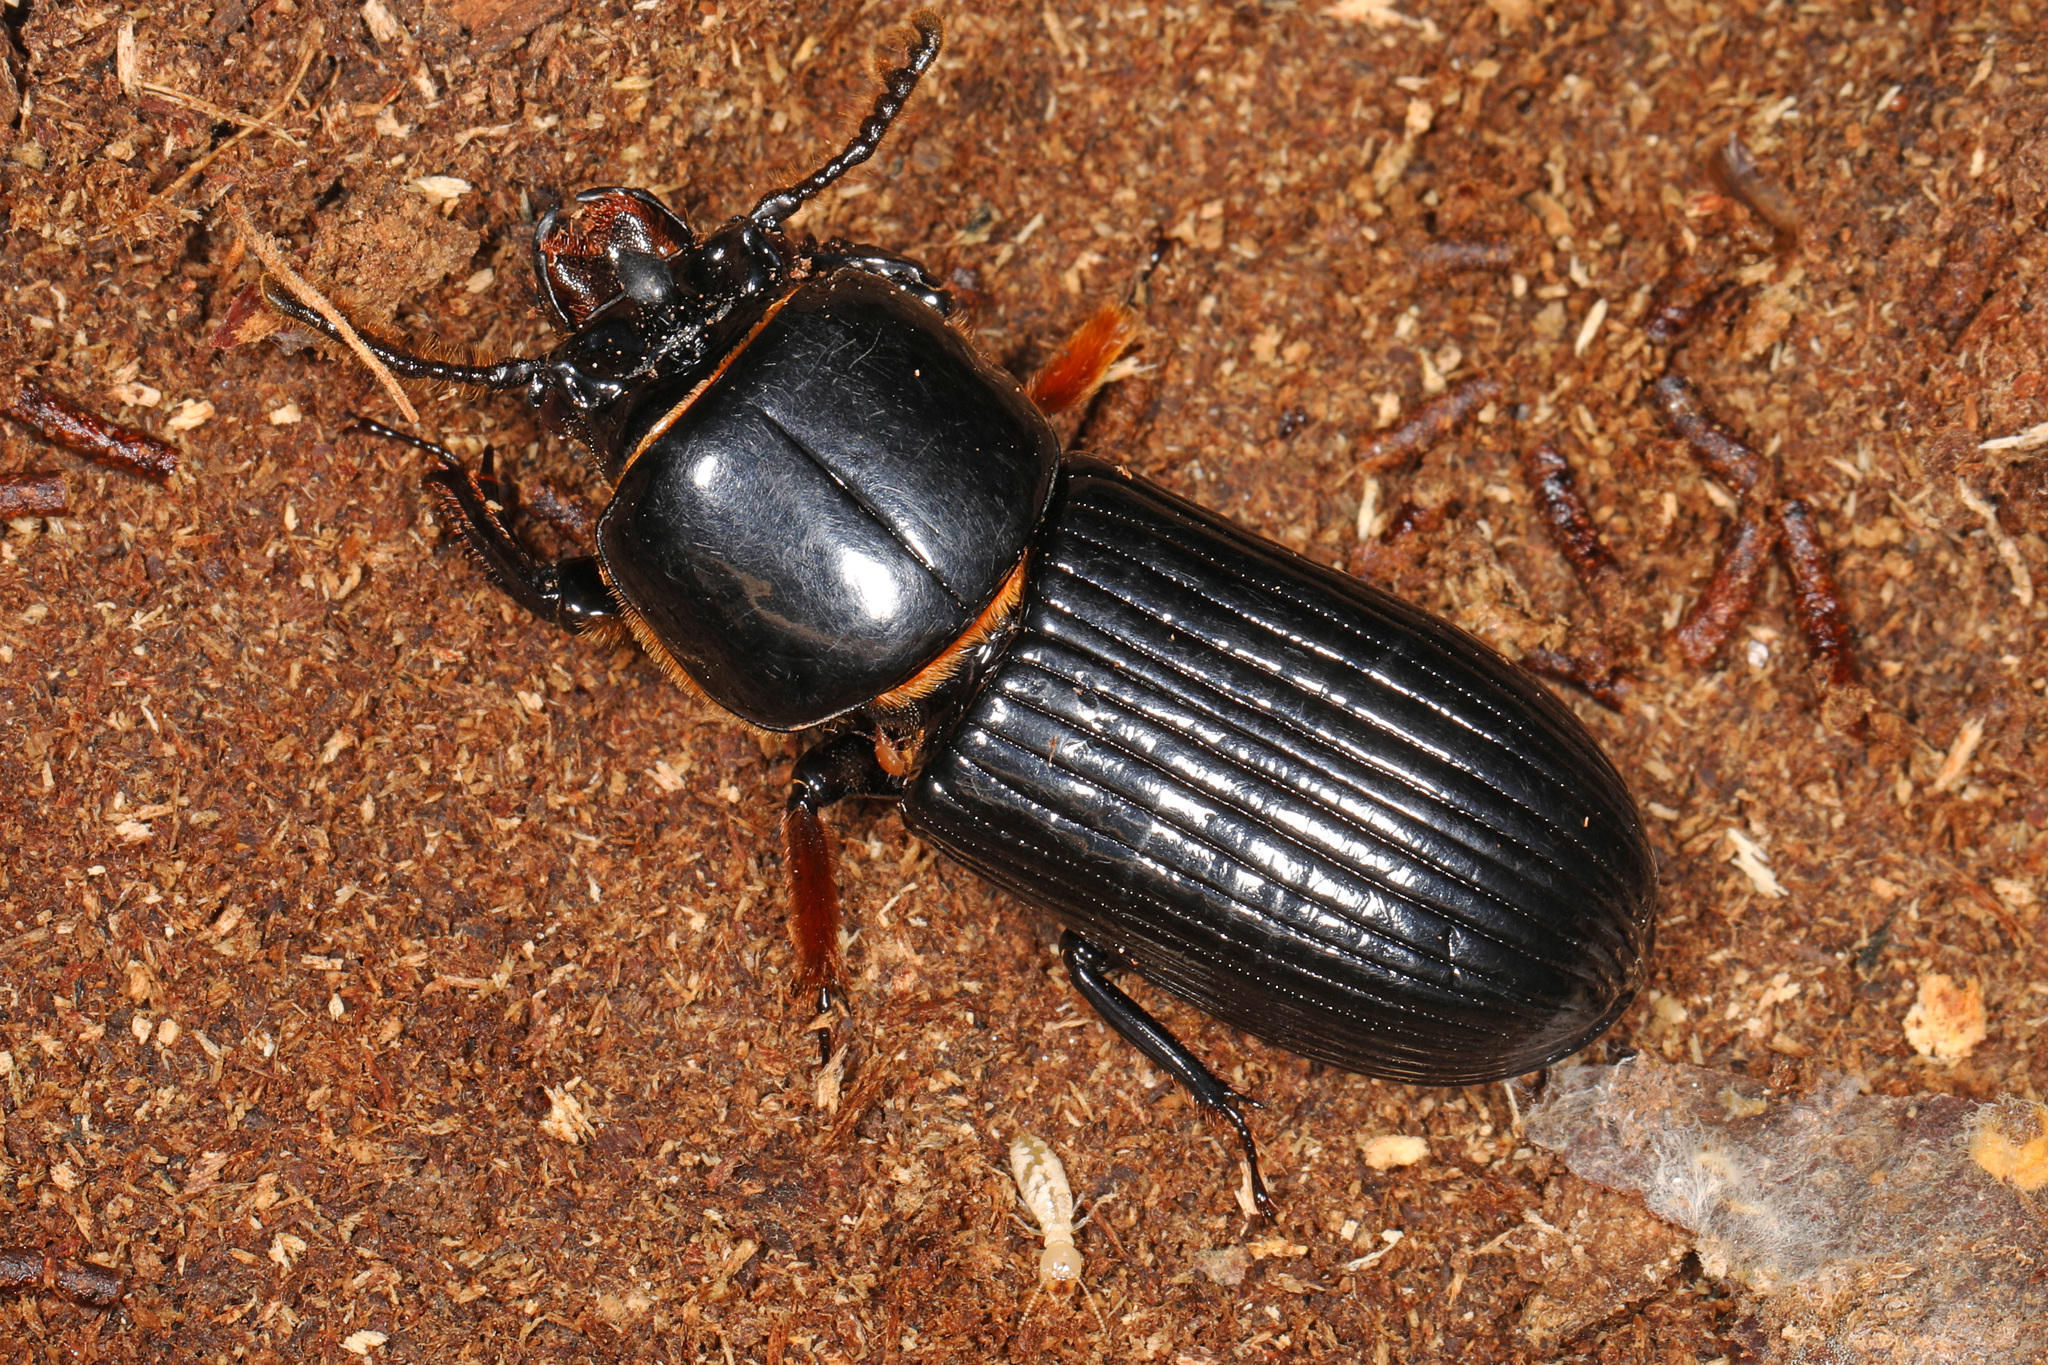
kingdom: Animalia
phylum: Arthropoda
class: Insecta
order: Coleoptera
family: Passalidae
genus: Odontotaenius
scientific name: Odontotaenius disjunctus
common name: Patent leather beetle
